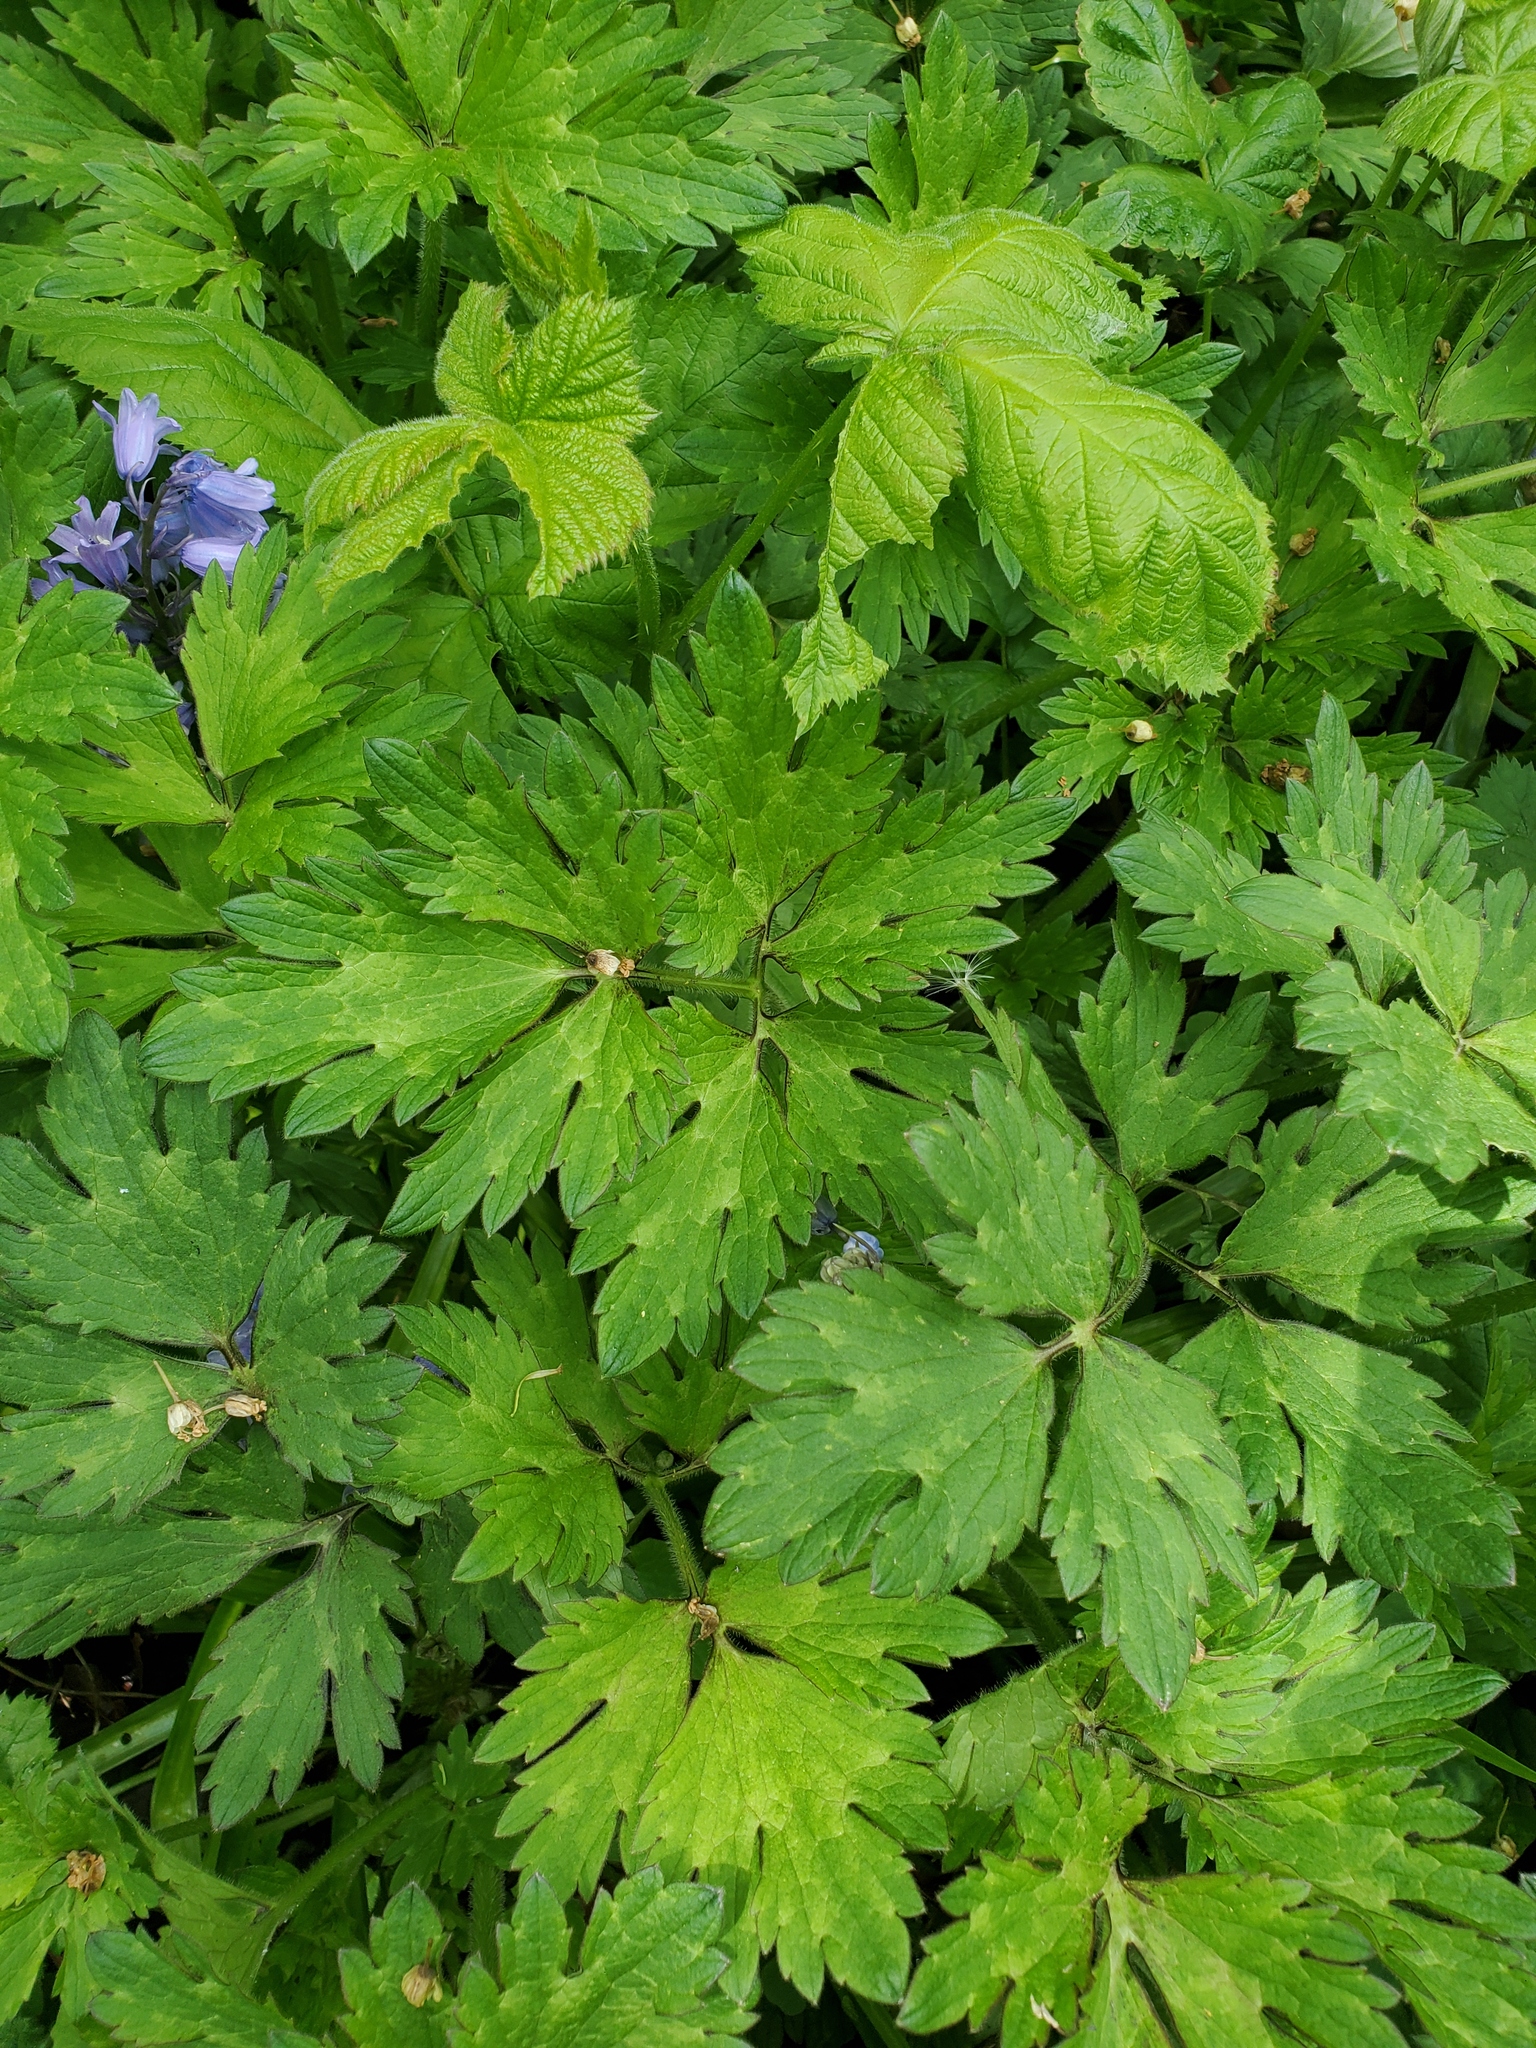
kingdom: Plantae
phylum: Tracheophyta
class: Magnoliopsida
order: Ranunculales
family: Ranunculaceae
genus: Ranunculus
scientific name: Ranunculus repens
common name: Creeping buttercup
